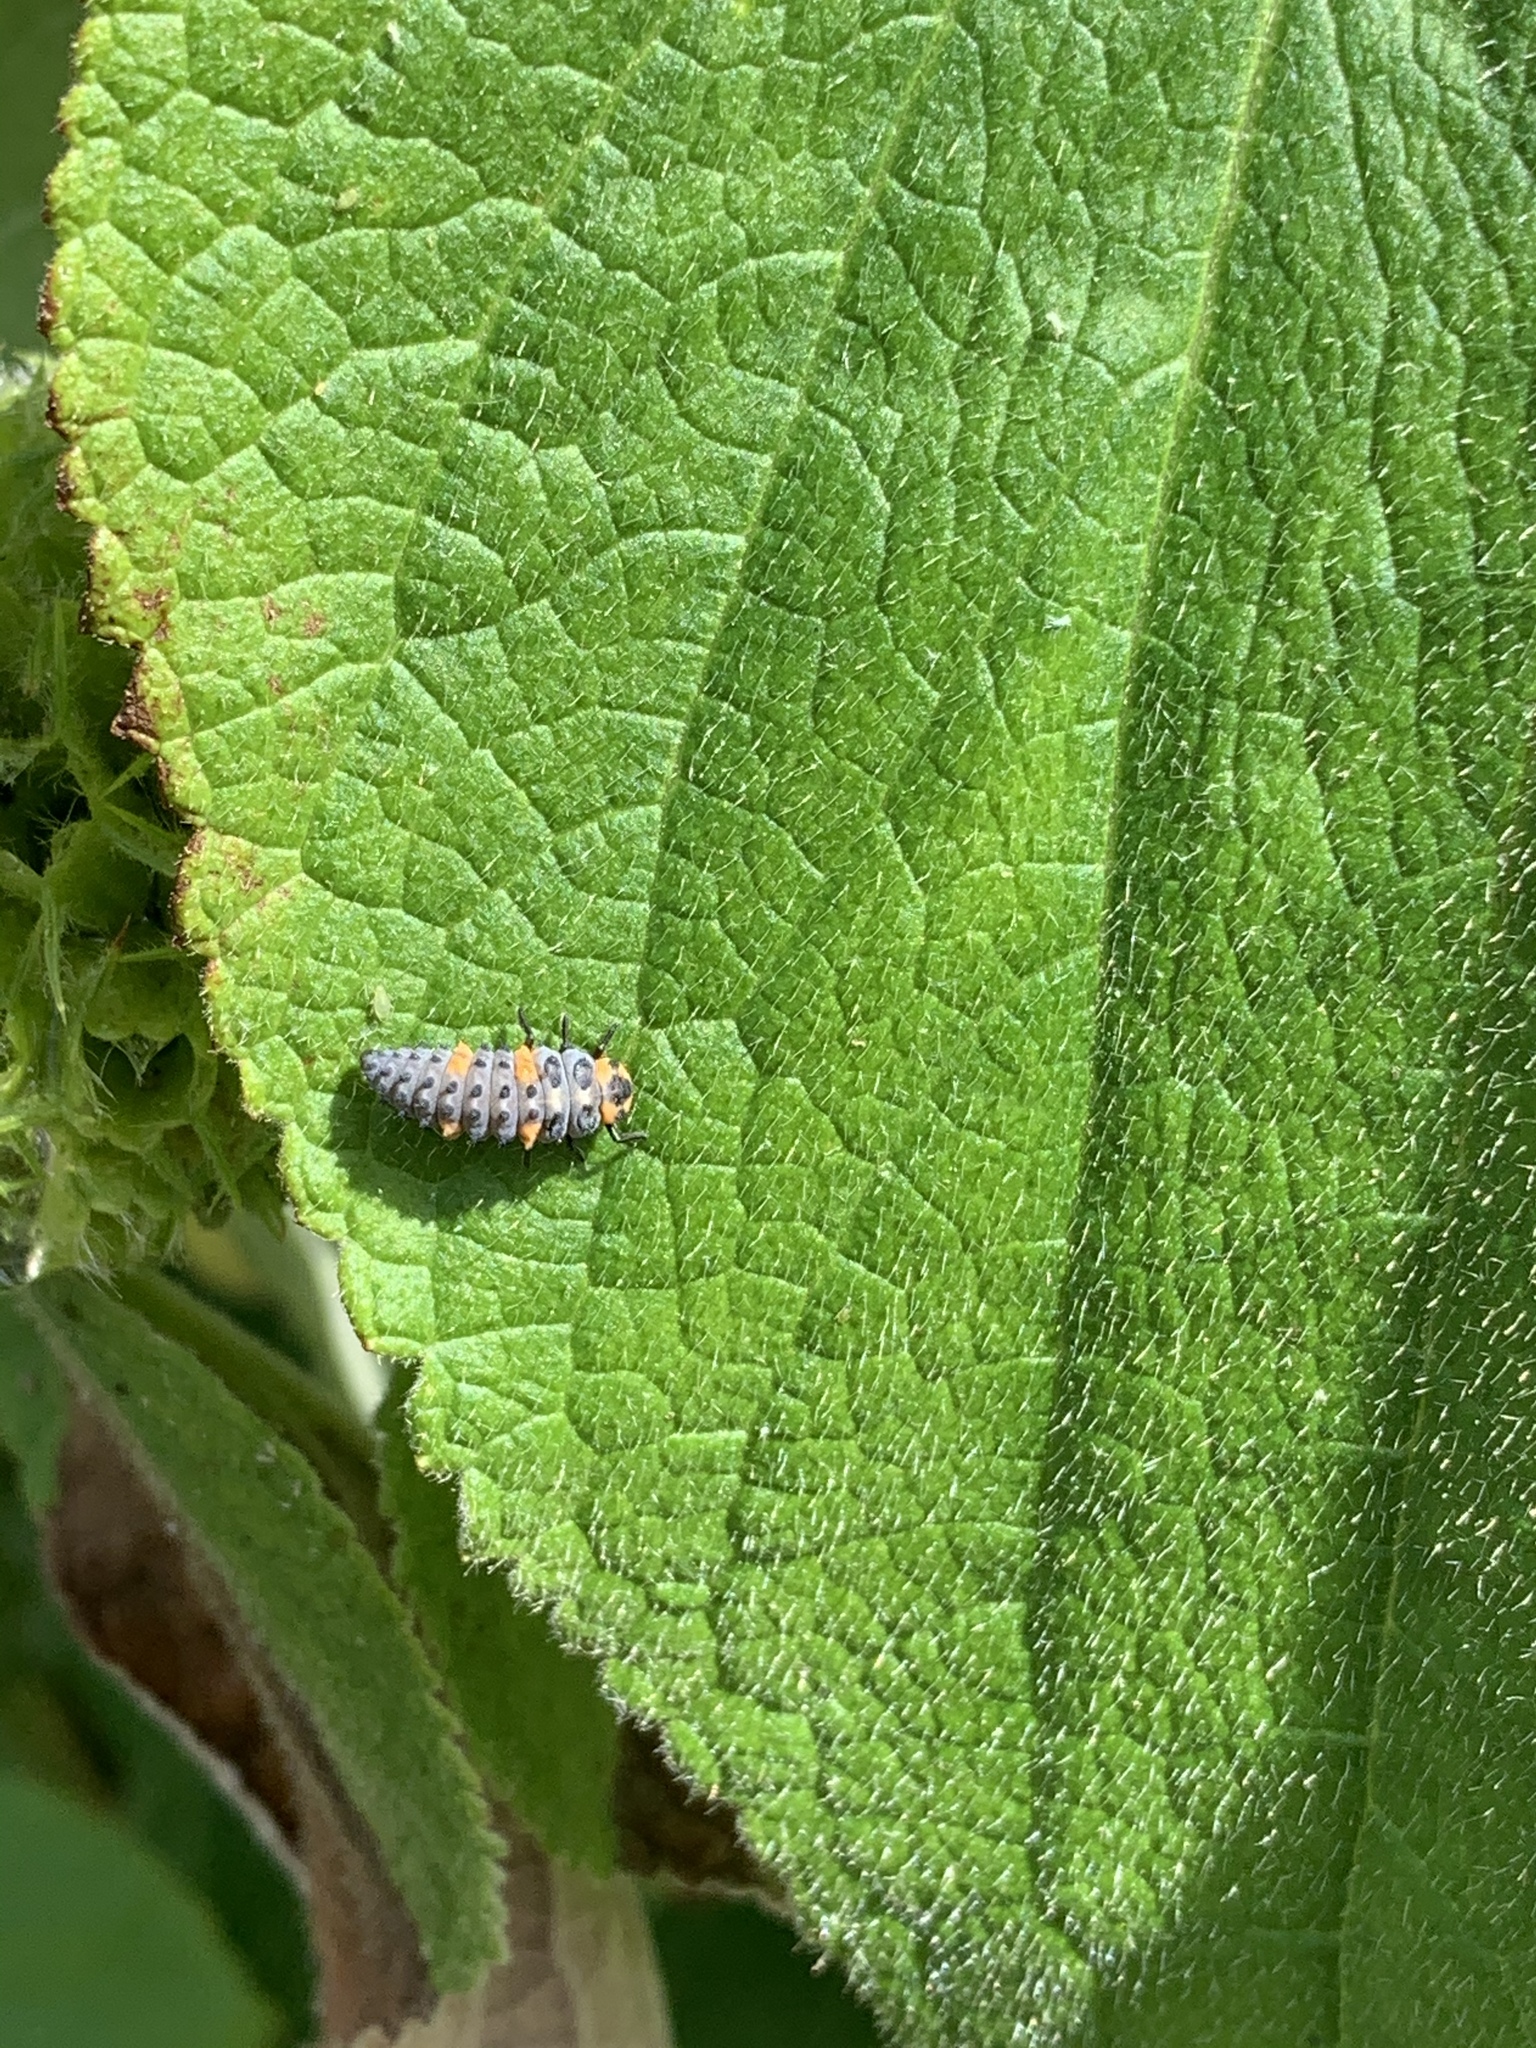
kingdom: Animalia
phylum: Arthropoda
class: Insecta
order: Coleoptera
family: Coccinellidae
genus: Coccinella
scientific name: Coccinella septempunctata
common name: Sevenspotted lady beetle
